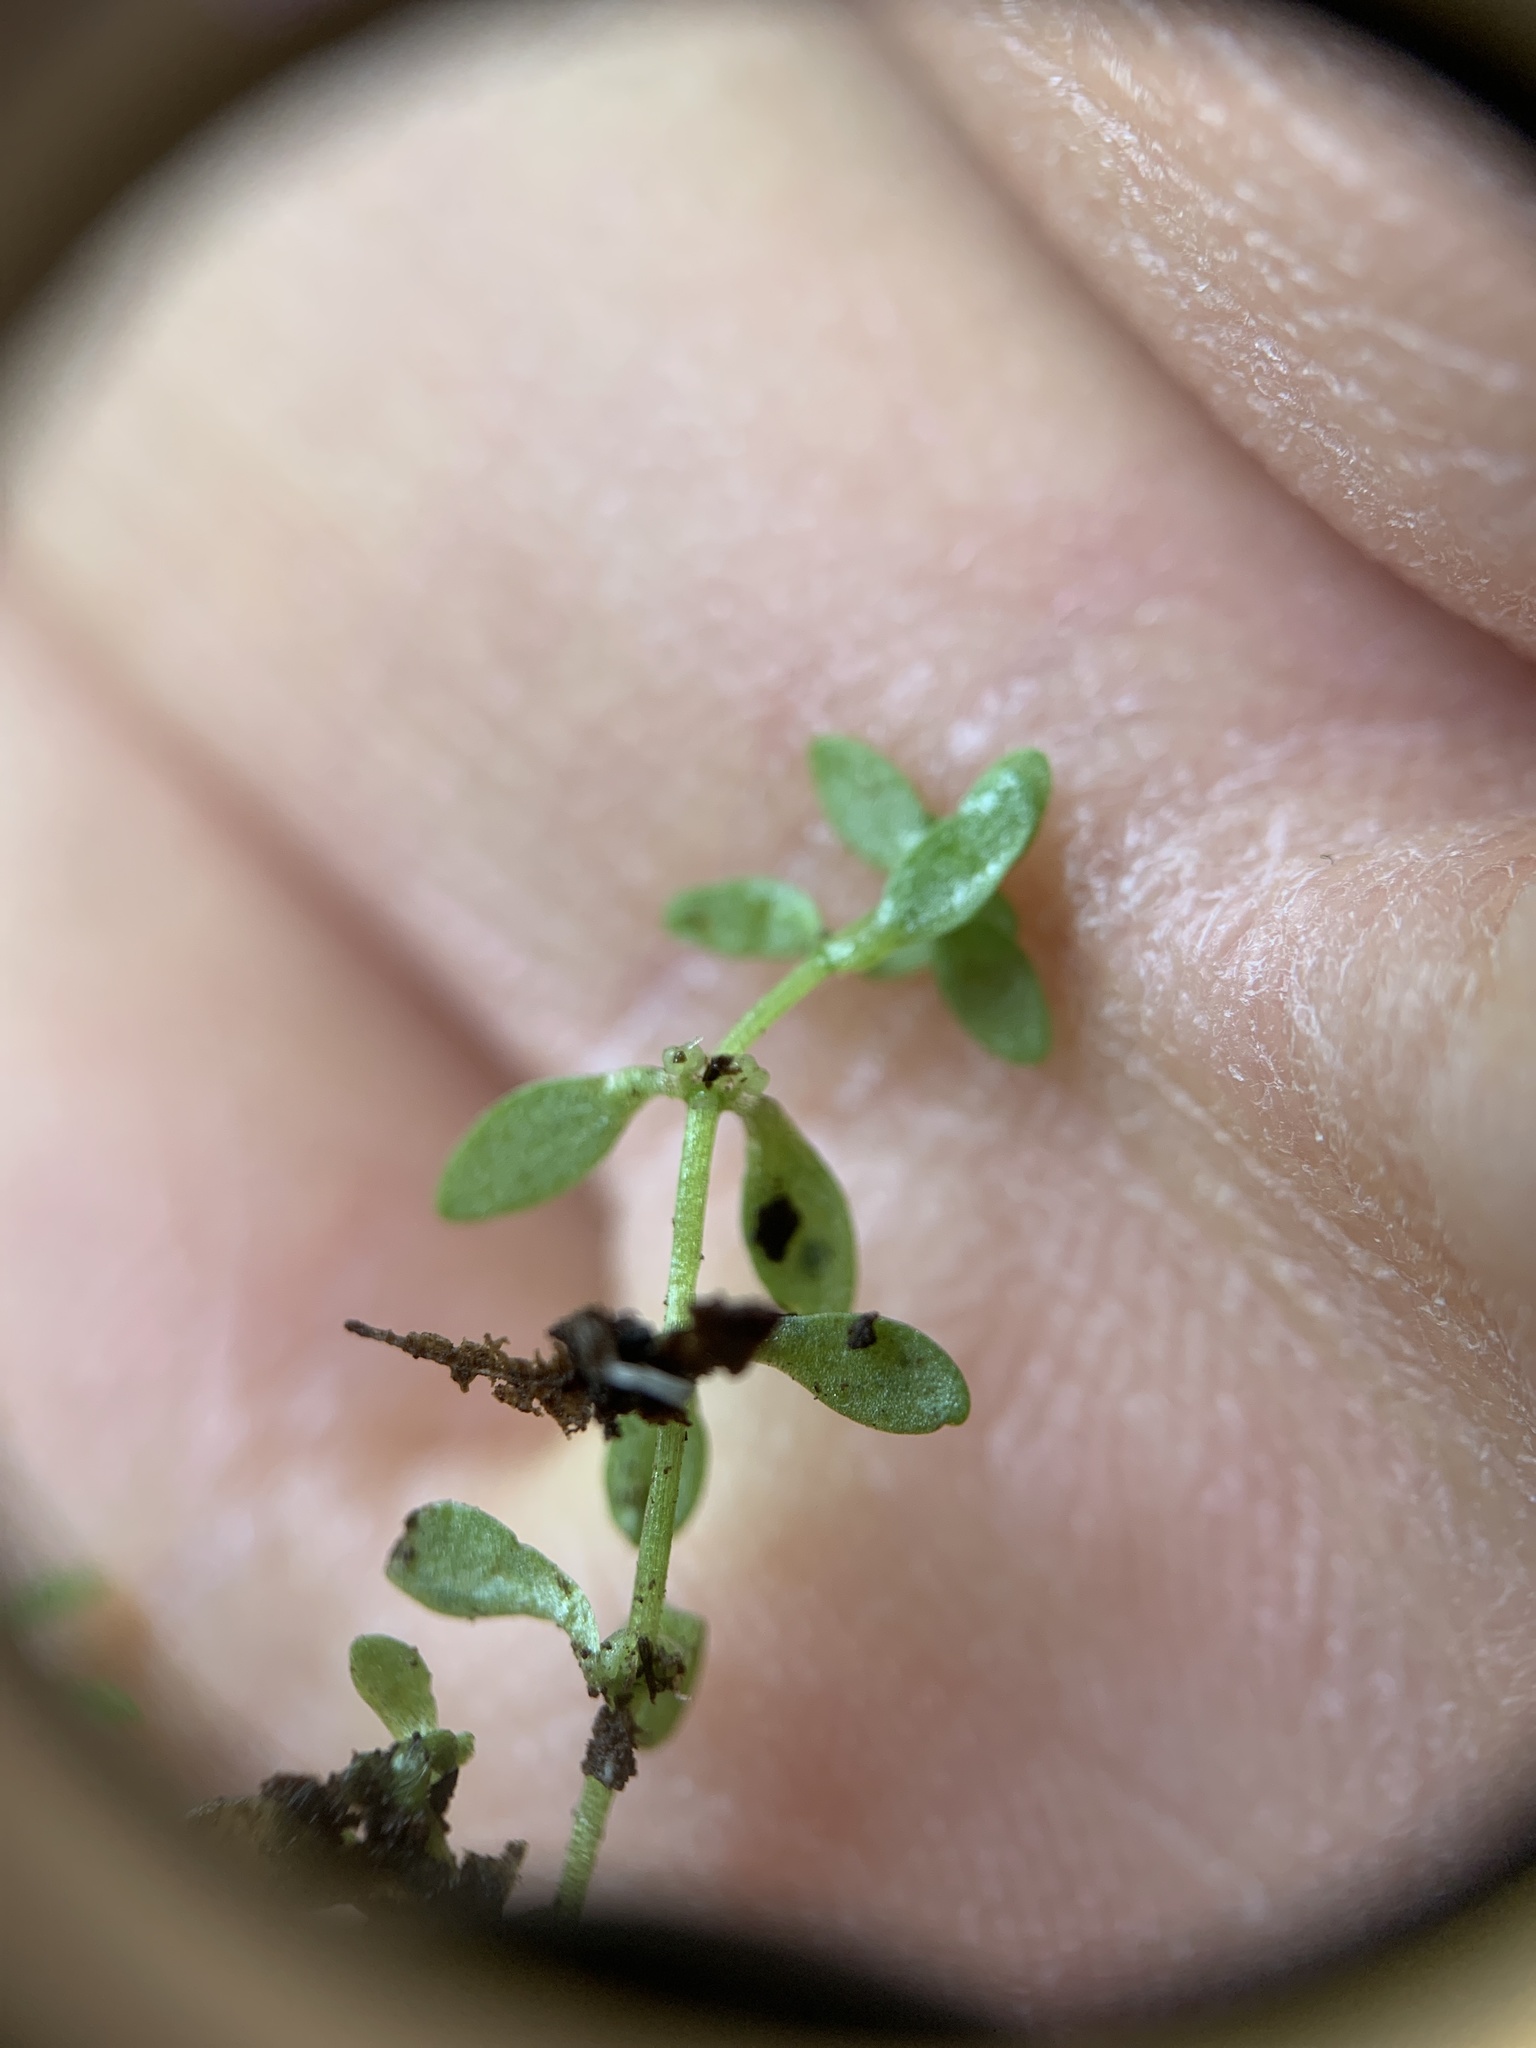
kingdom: Plantae
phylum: Tracheophyta
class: Magnoliopsida
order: Lamiales
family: Plantaginaceae
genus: Callitriche
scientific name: Callitriche terrestris
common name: Terrestrial water-starwort
